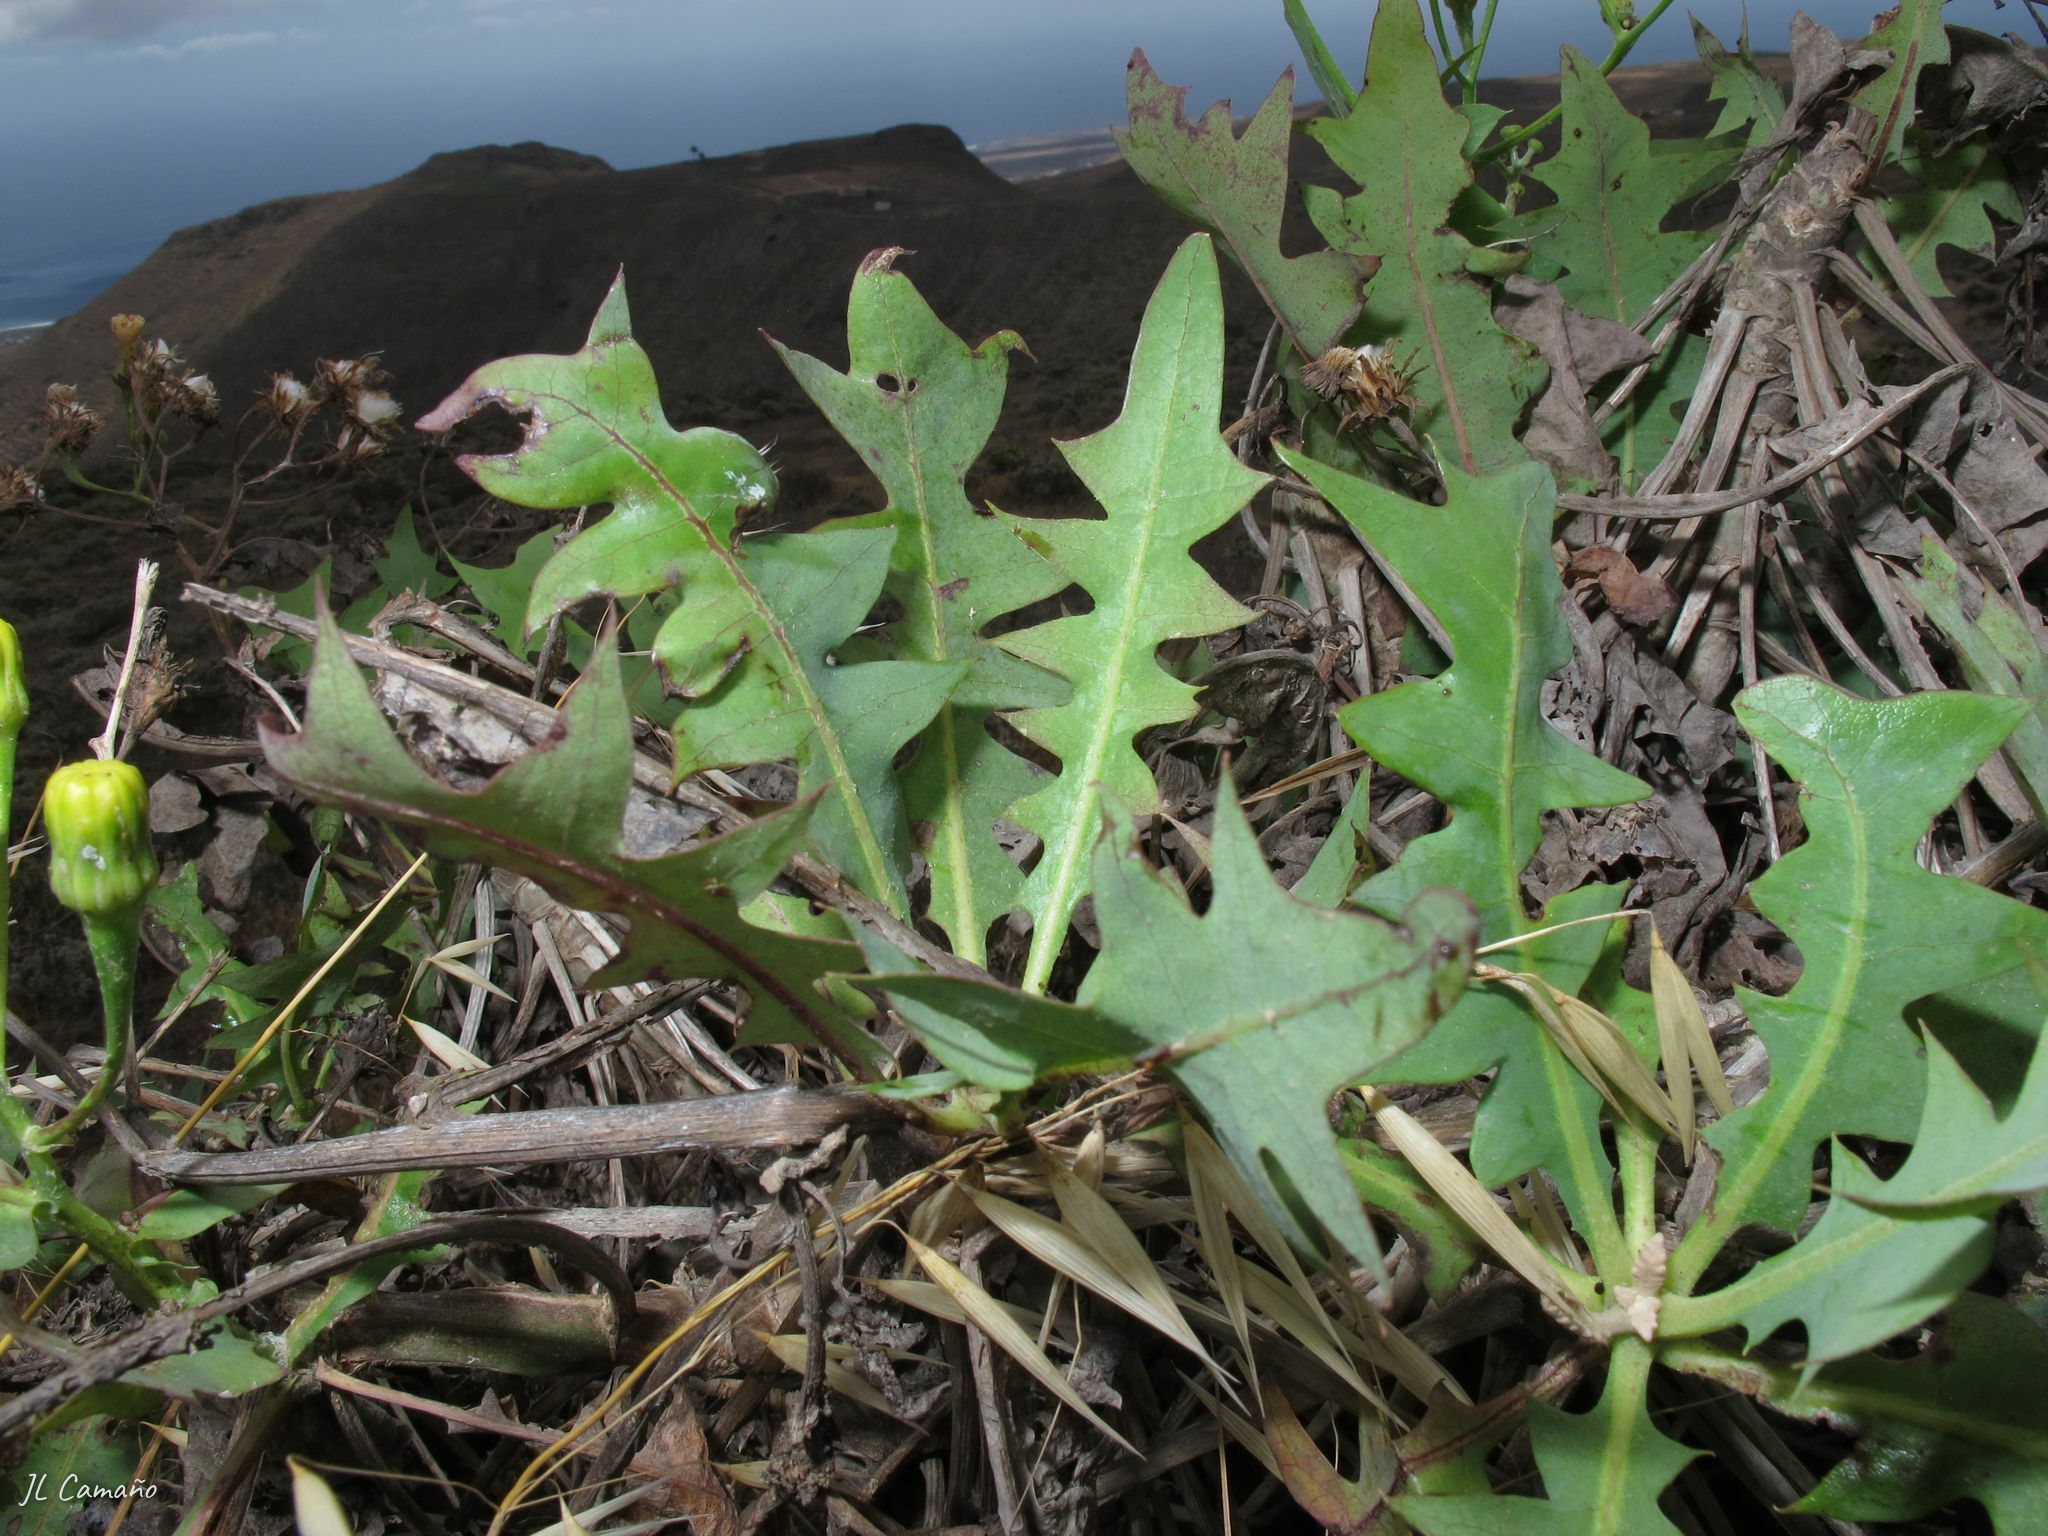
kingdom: Plantae
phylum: Tracheophyta
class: Magnoliopsida
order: Asterales
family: Asteraceae
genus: Sonchus
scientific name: Sonchus pinnatifidus
